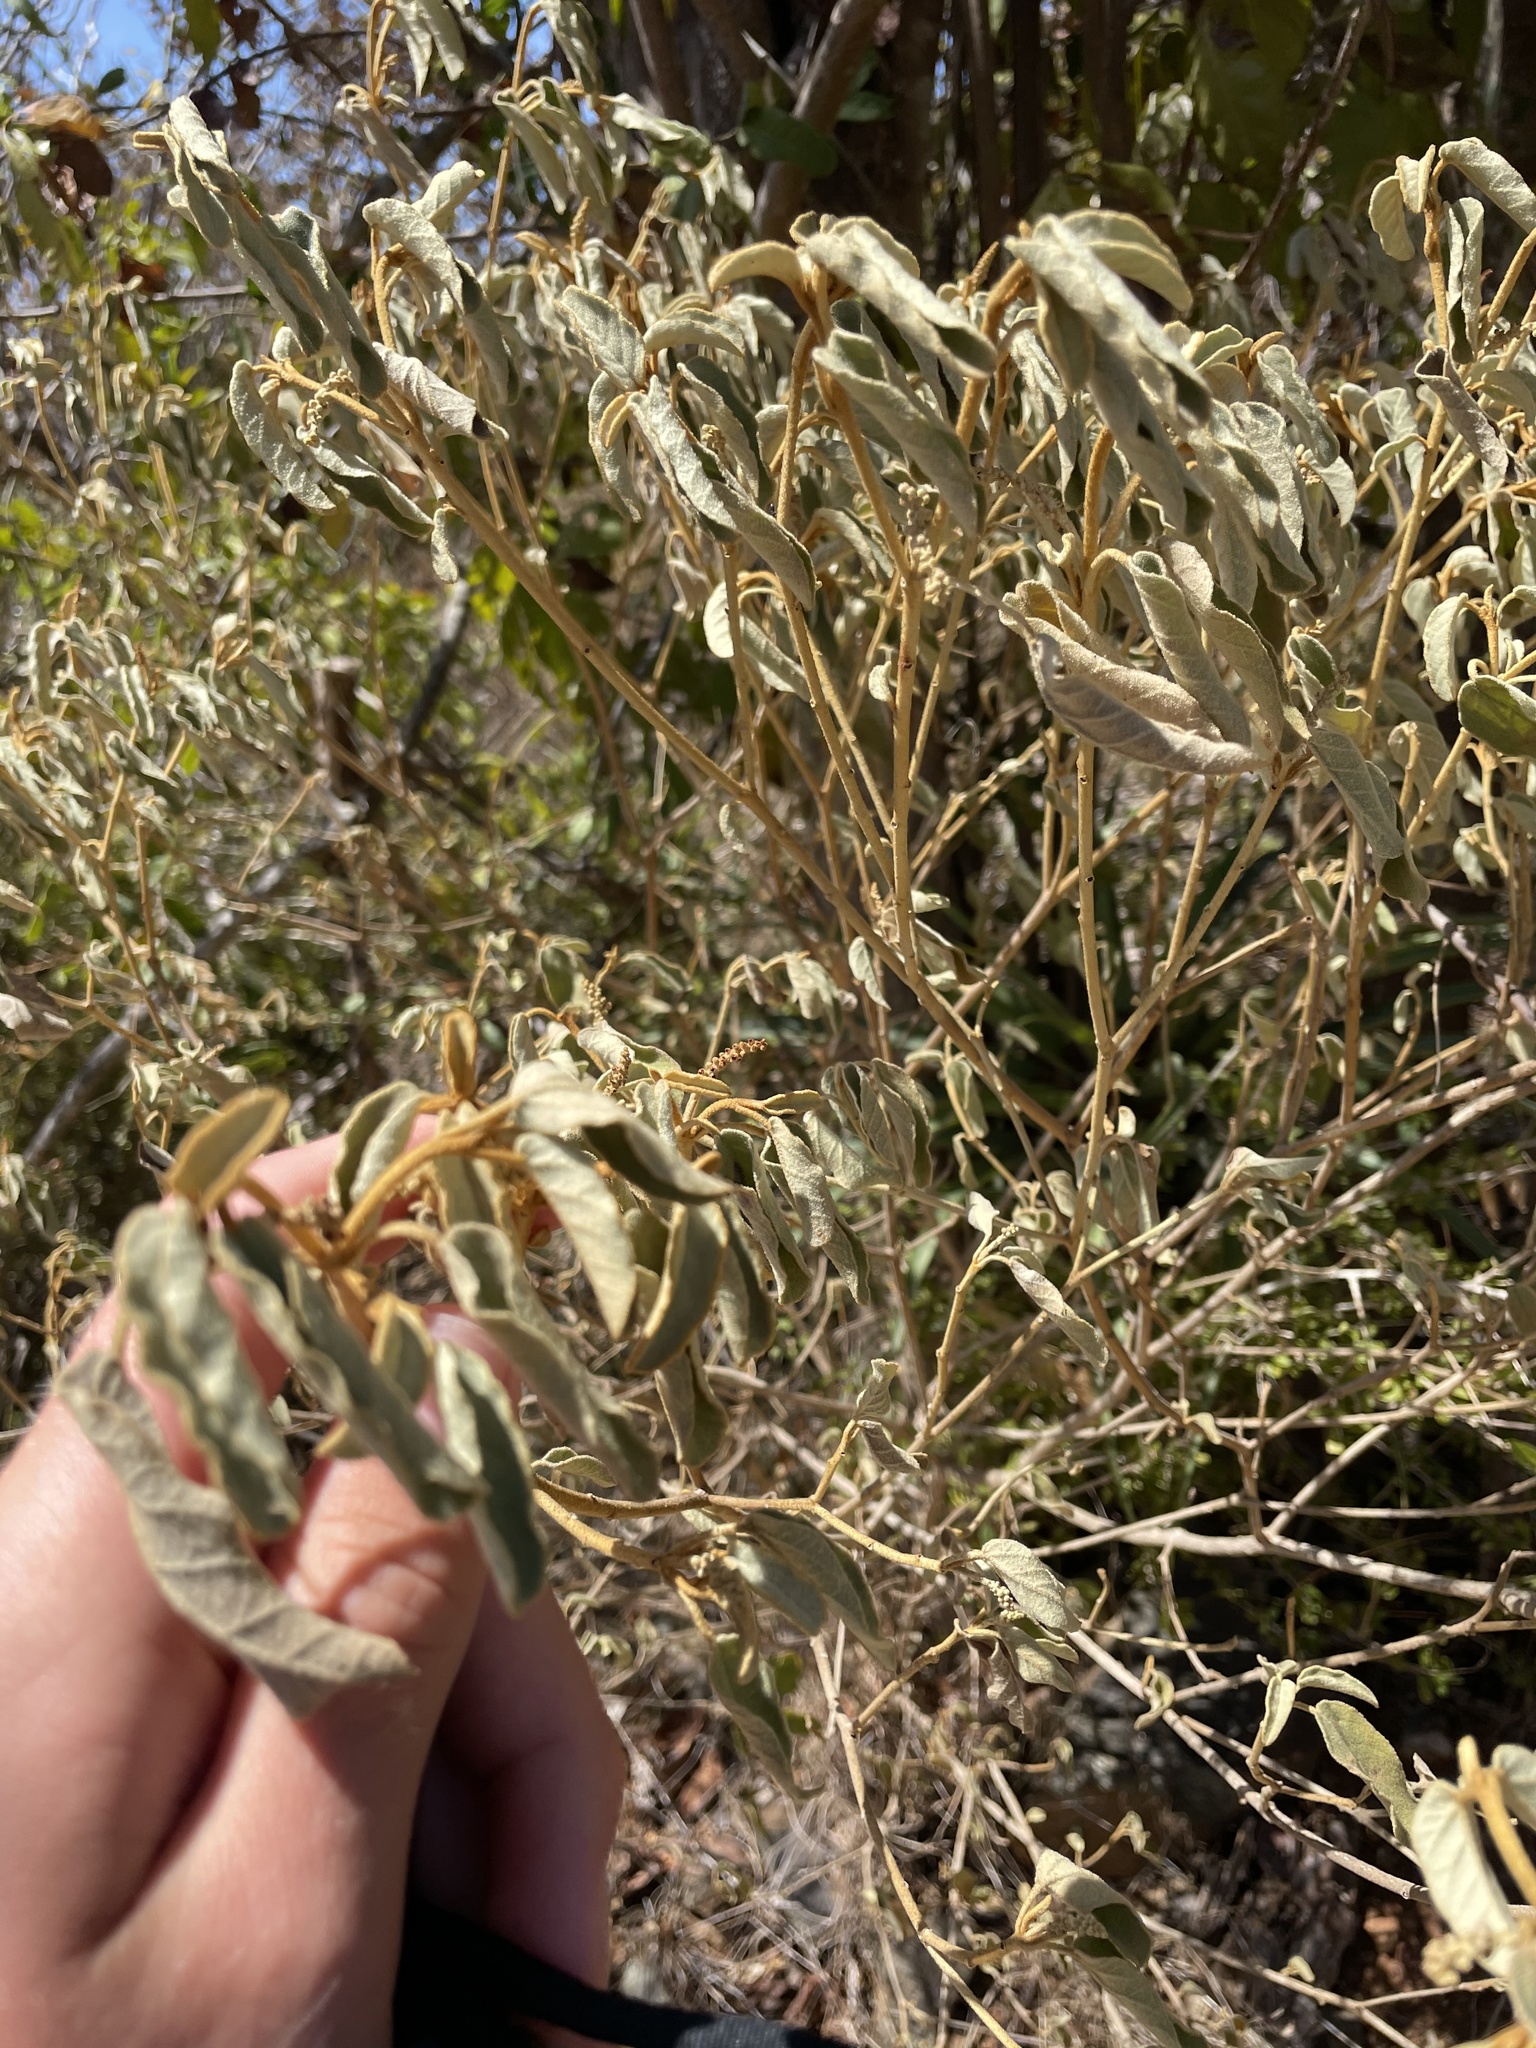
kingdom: Plantae
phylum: Tracheophyta
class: Magnoliopsida
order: Malpighiales
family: Euphorbiaceae
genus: Croton
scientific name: Croton flavens
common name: Yellow balsam
